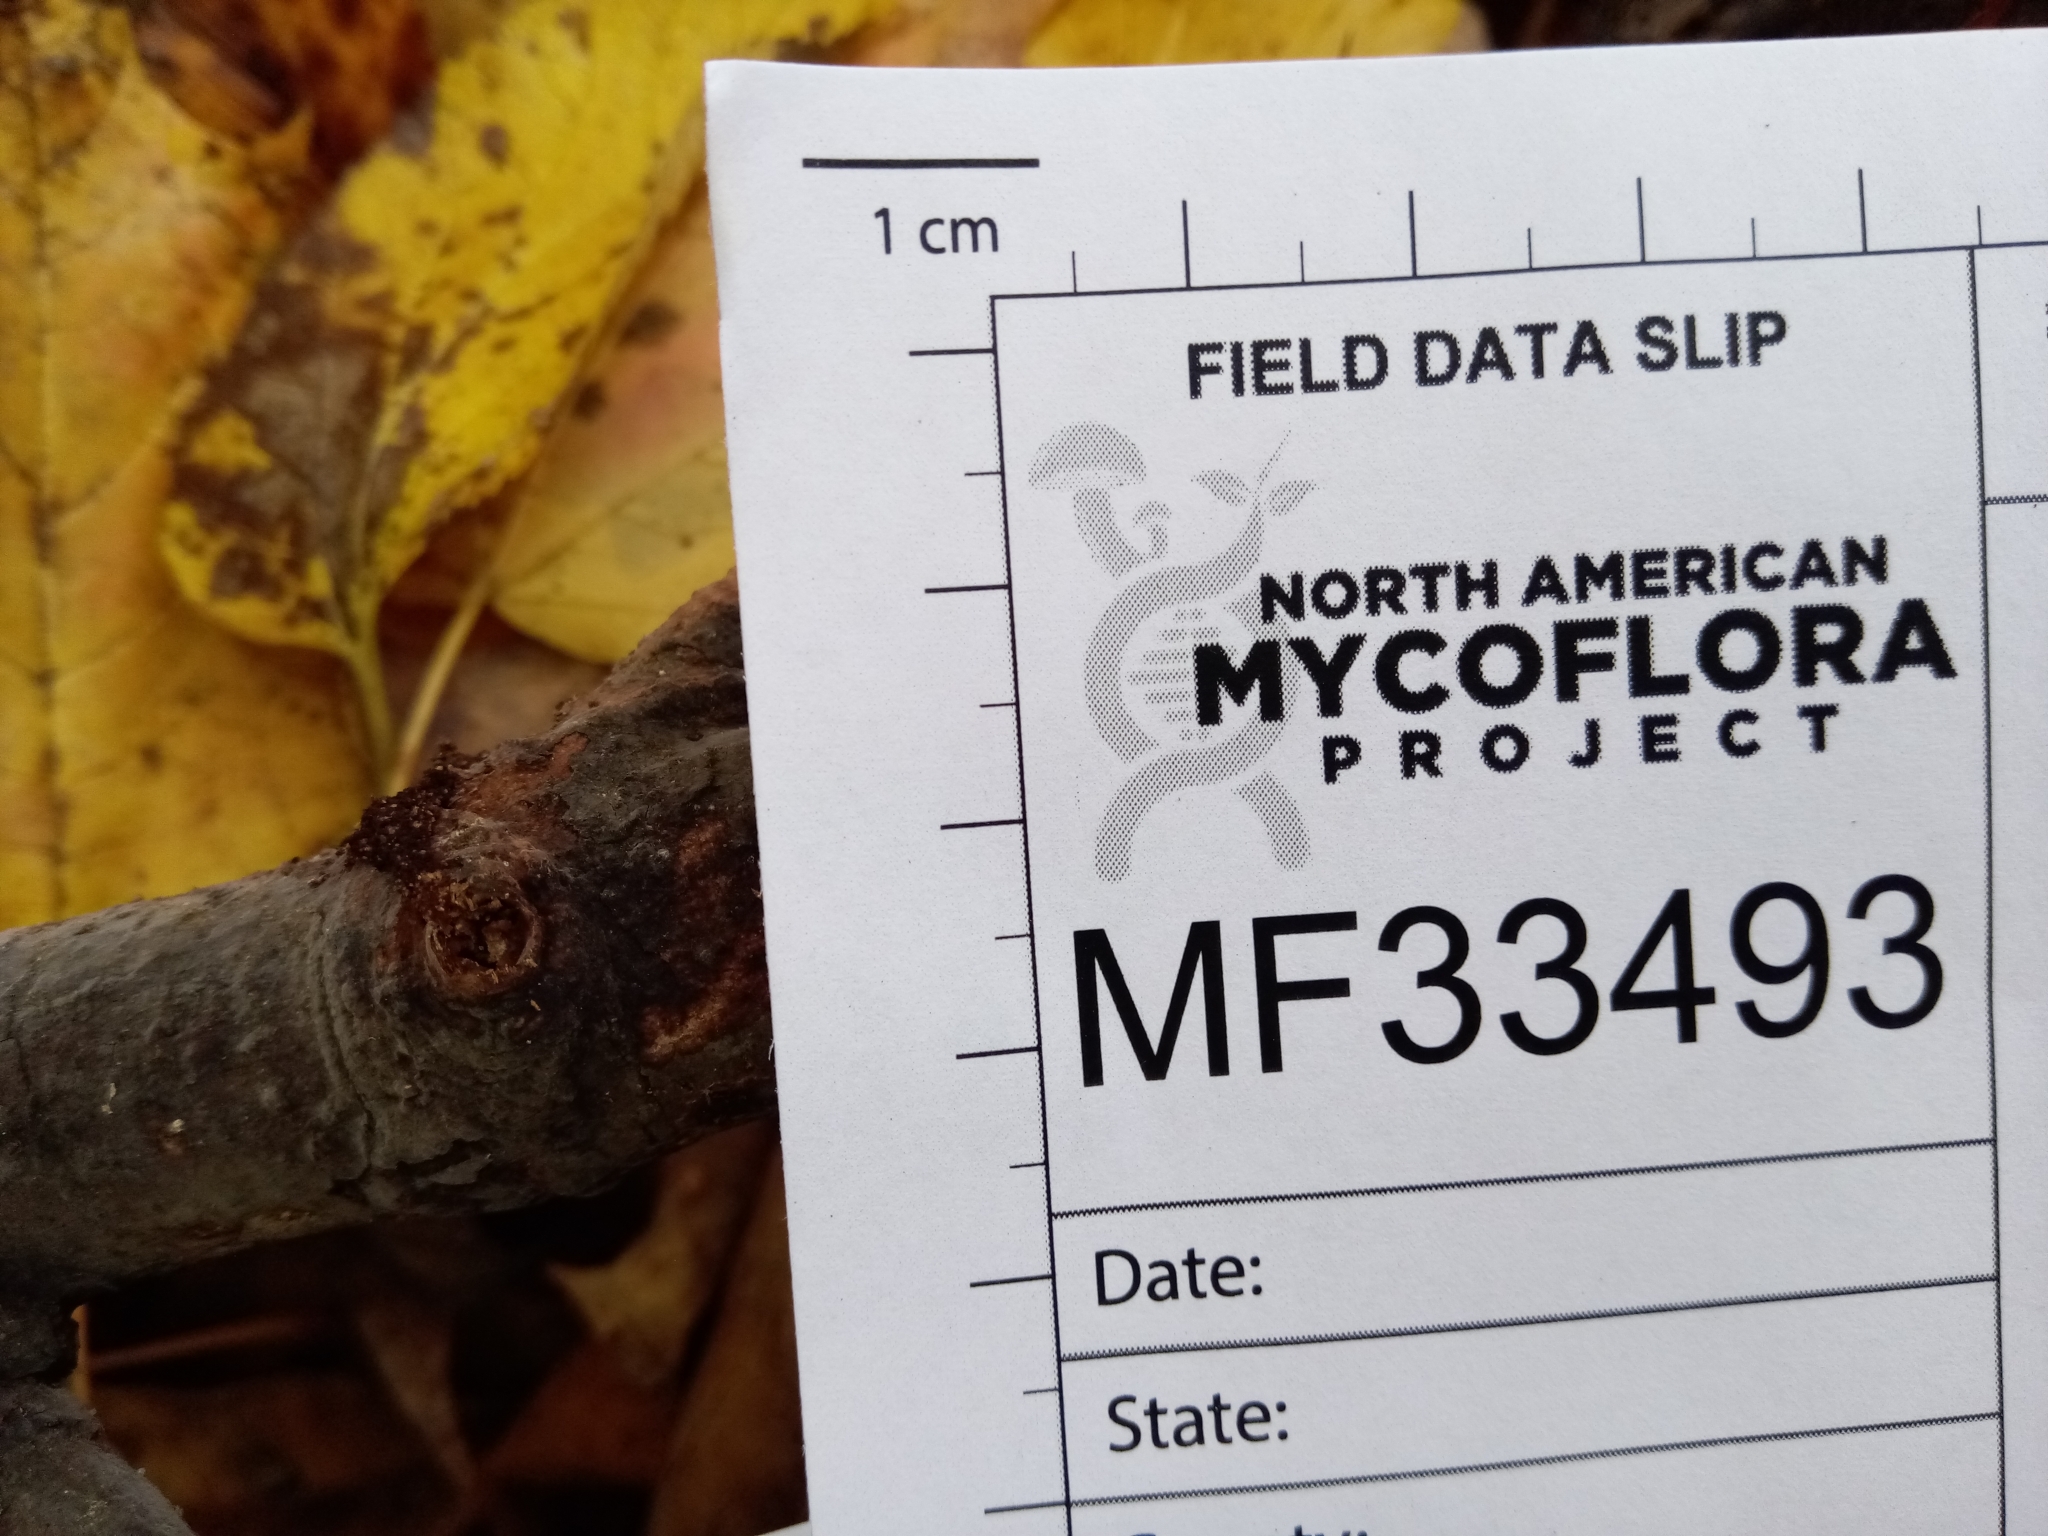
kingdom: Fungi
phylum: Basidiomycota
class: Agaricomycetes
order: Russulales
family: Peniophoraceae
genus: Peniophora
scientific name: Peniophora cinerea
